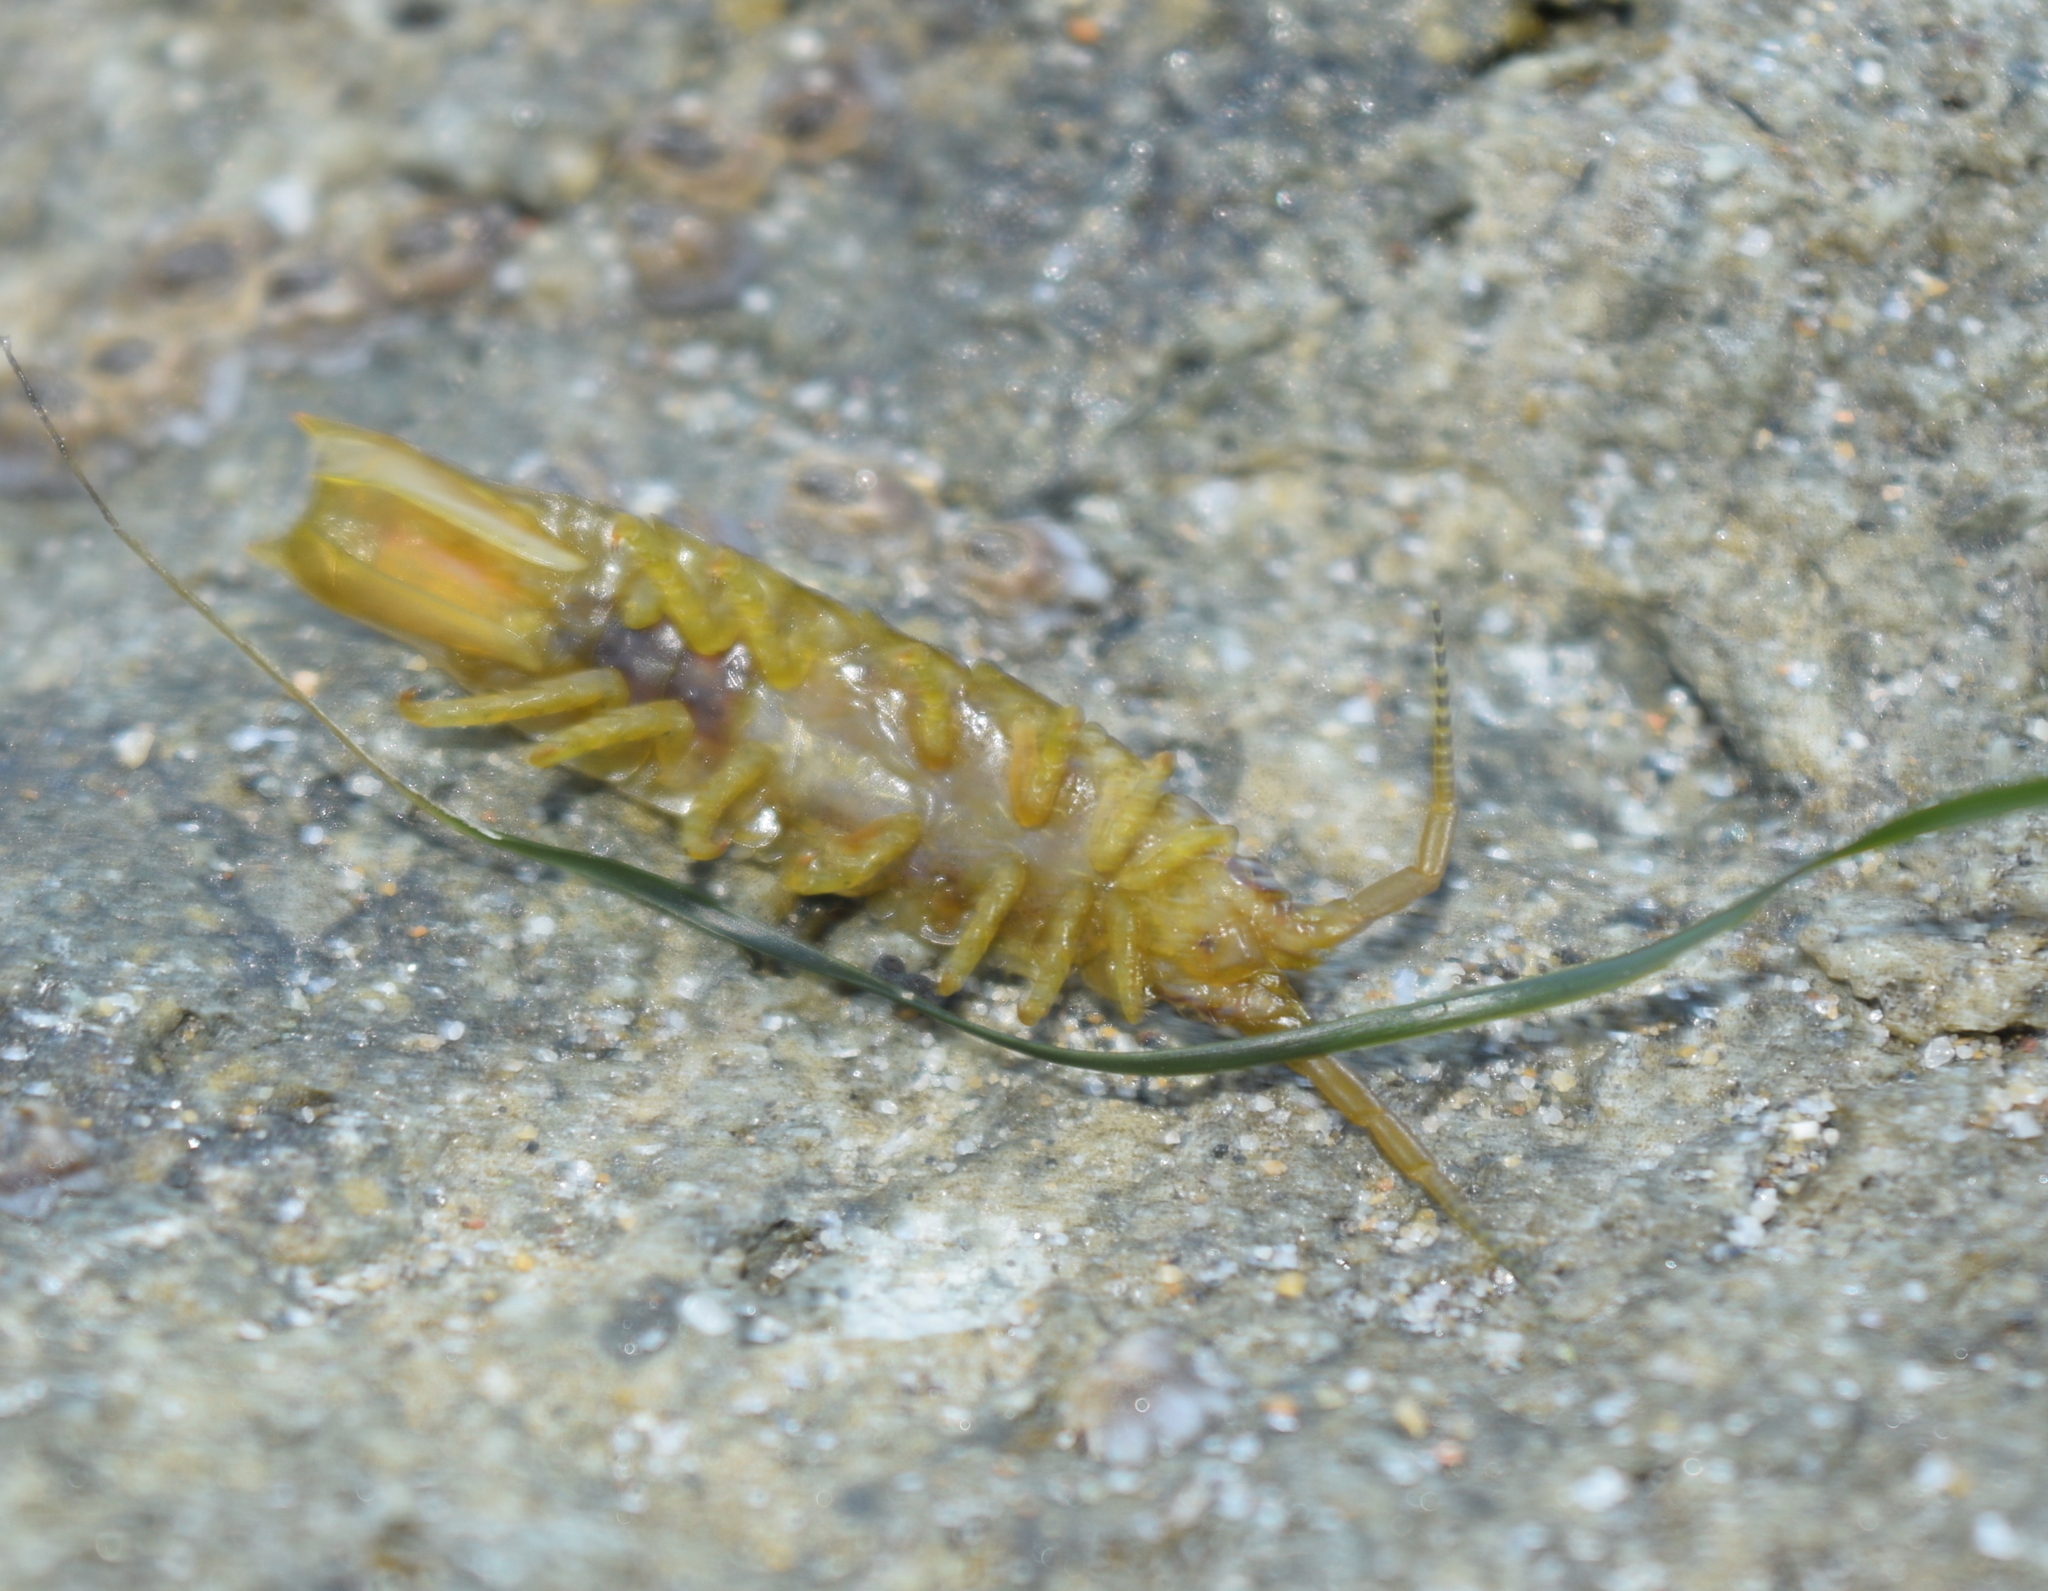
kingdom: Animalia
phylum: Arthropoda
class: Malacostraca
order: Isopoda
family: Idoteidae
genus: Pentidotea
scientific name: Pentidotea resecata
